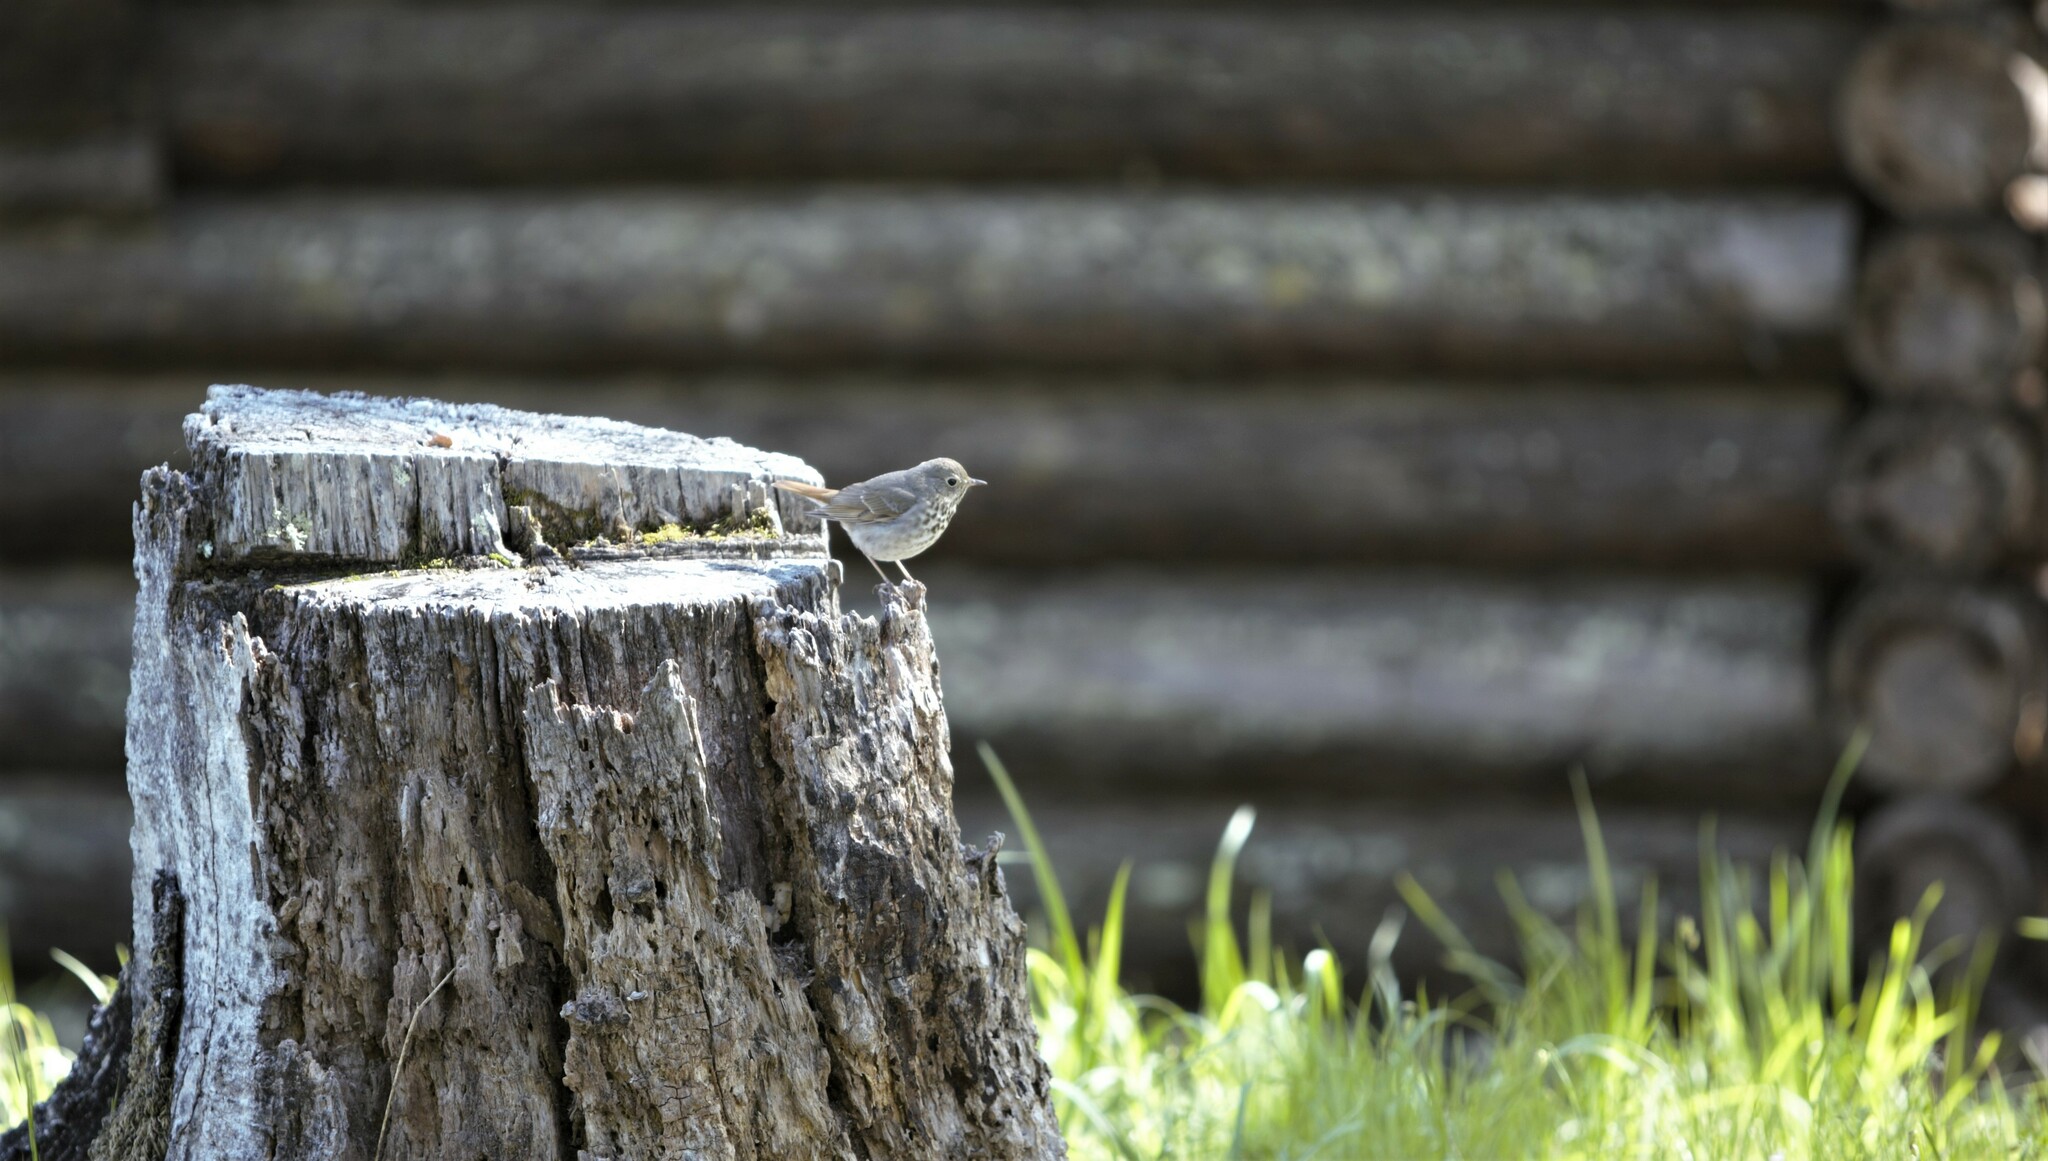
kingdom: Animalia
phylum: Chordata
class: Aves
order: Passeriformes
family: Turdidae
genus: Catharus
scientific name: Catharus guttatus
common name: Hermit thrush
